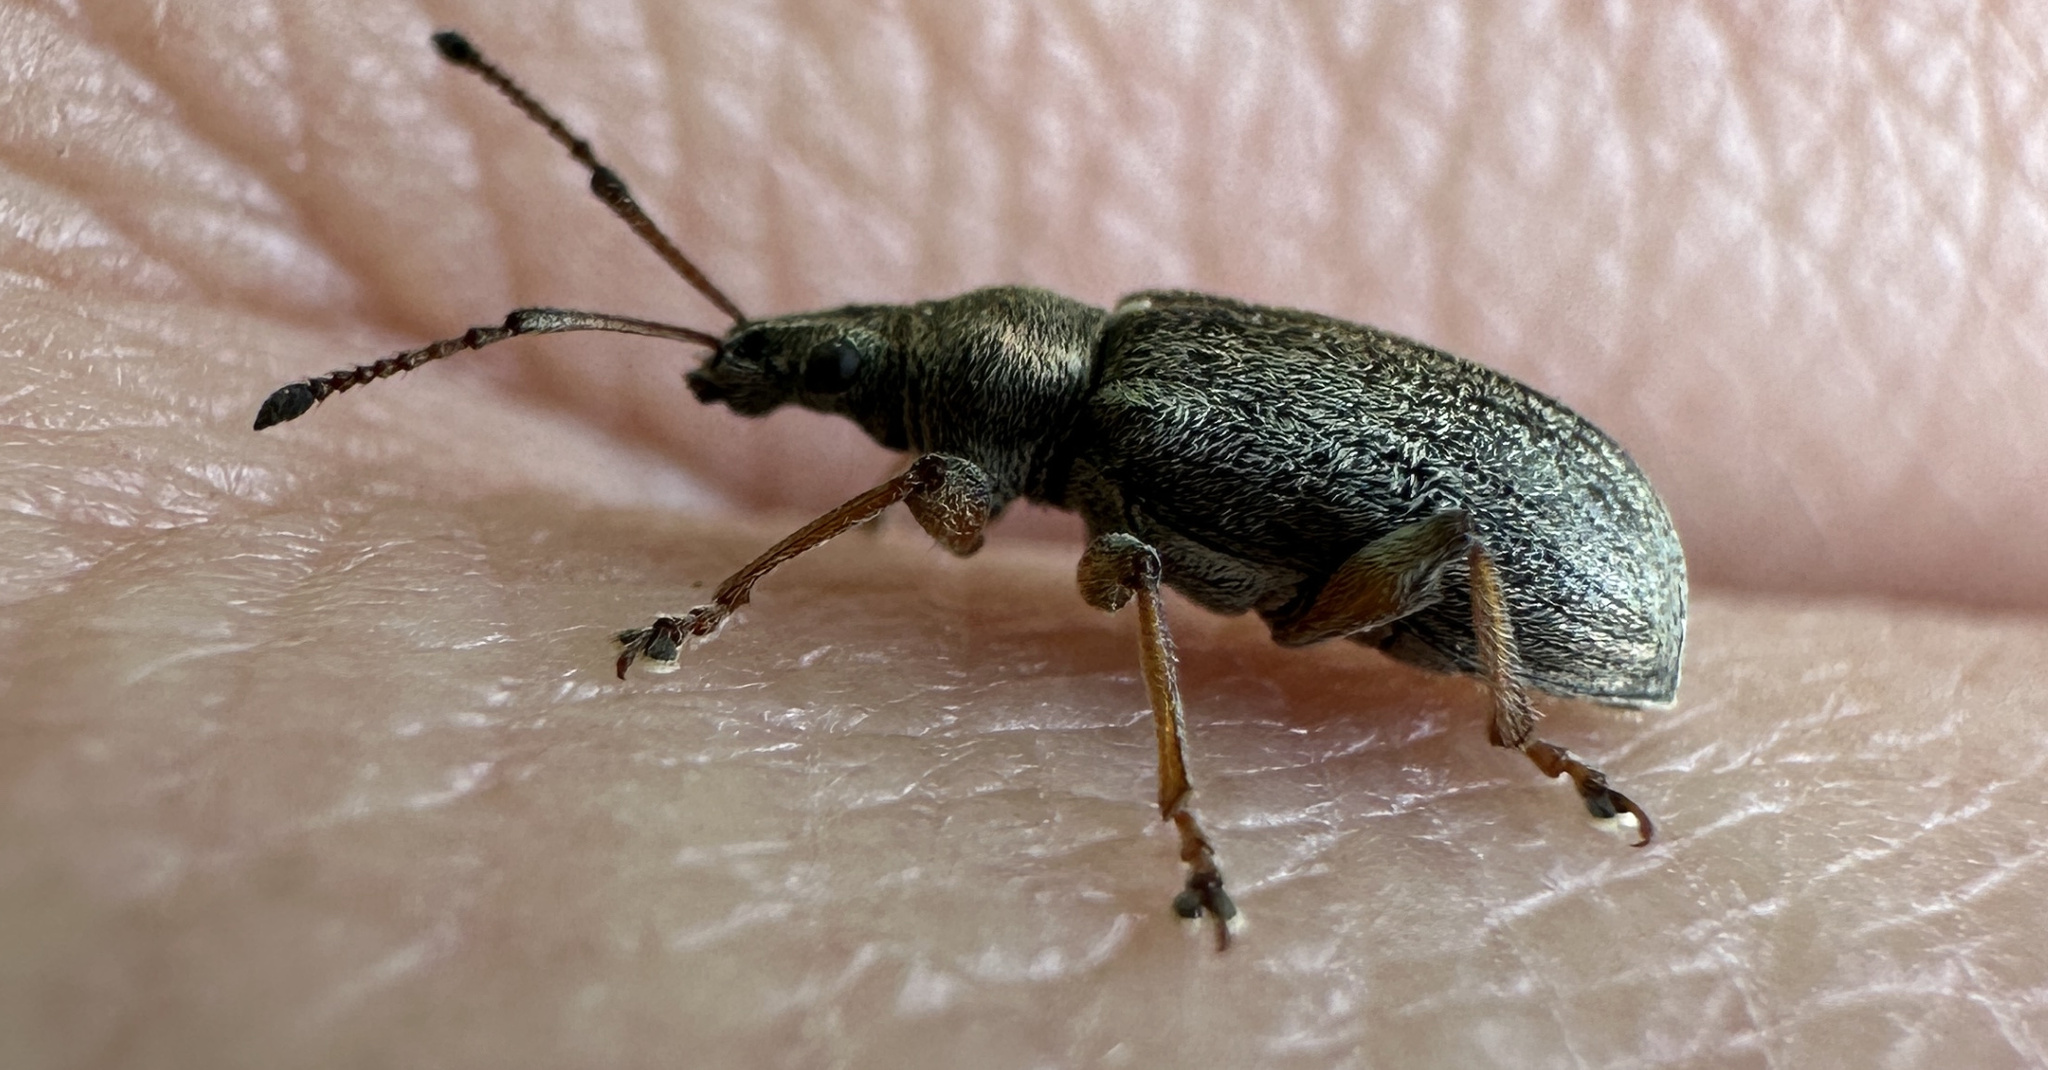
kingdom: Animalia
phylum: Arthropoda
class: Insecta
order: Coleoptera
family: Curculionidae
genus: Phyllobius
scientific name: Phyllobius pyri
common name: Common leaf weevil
